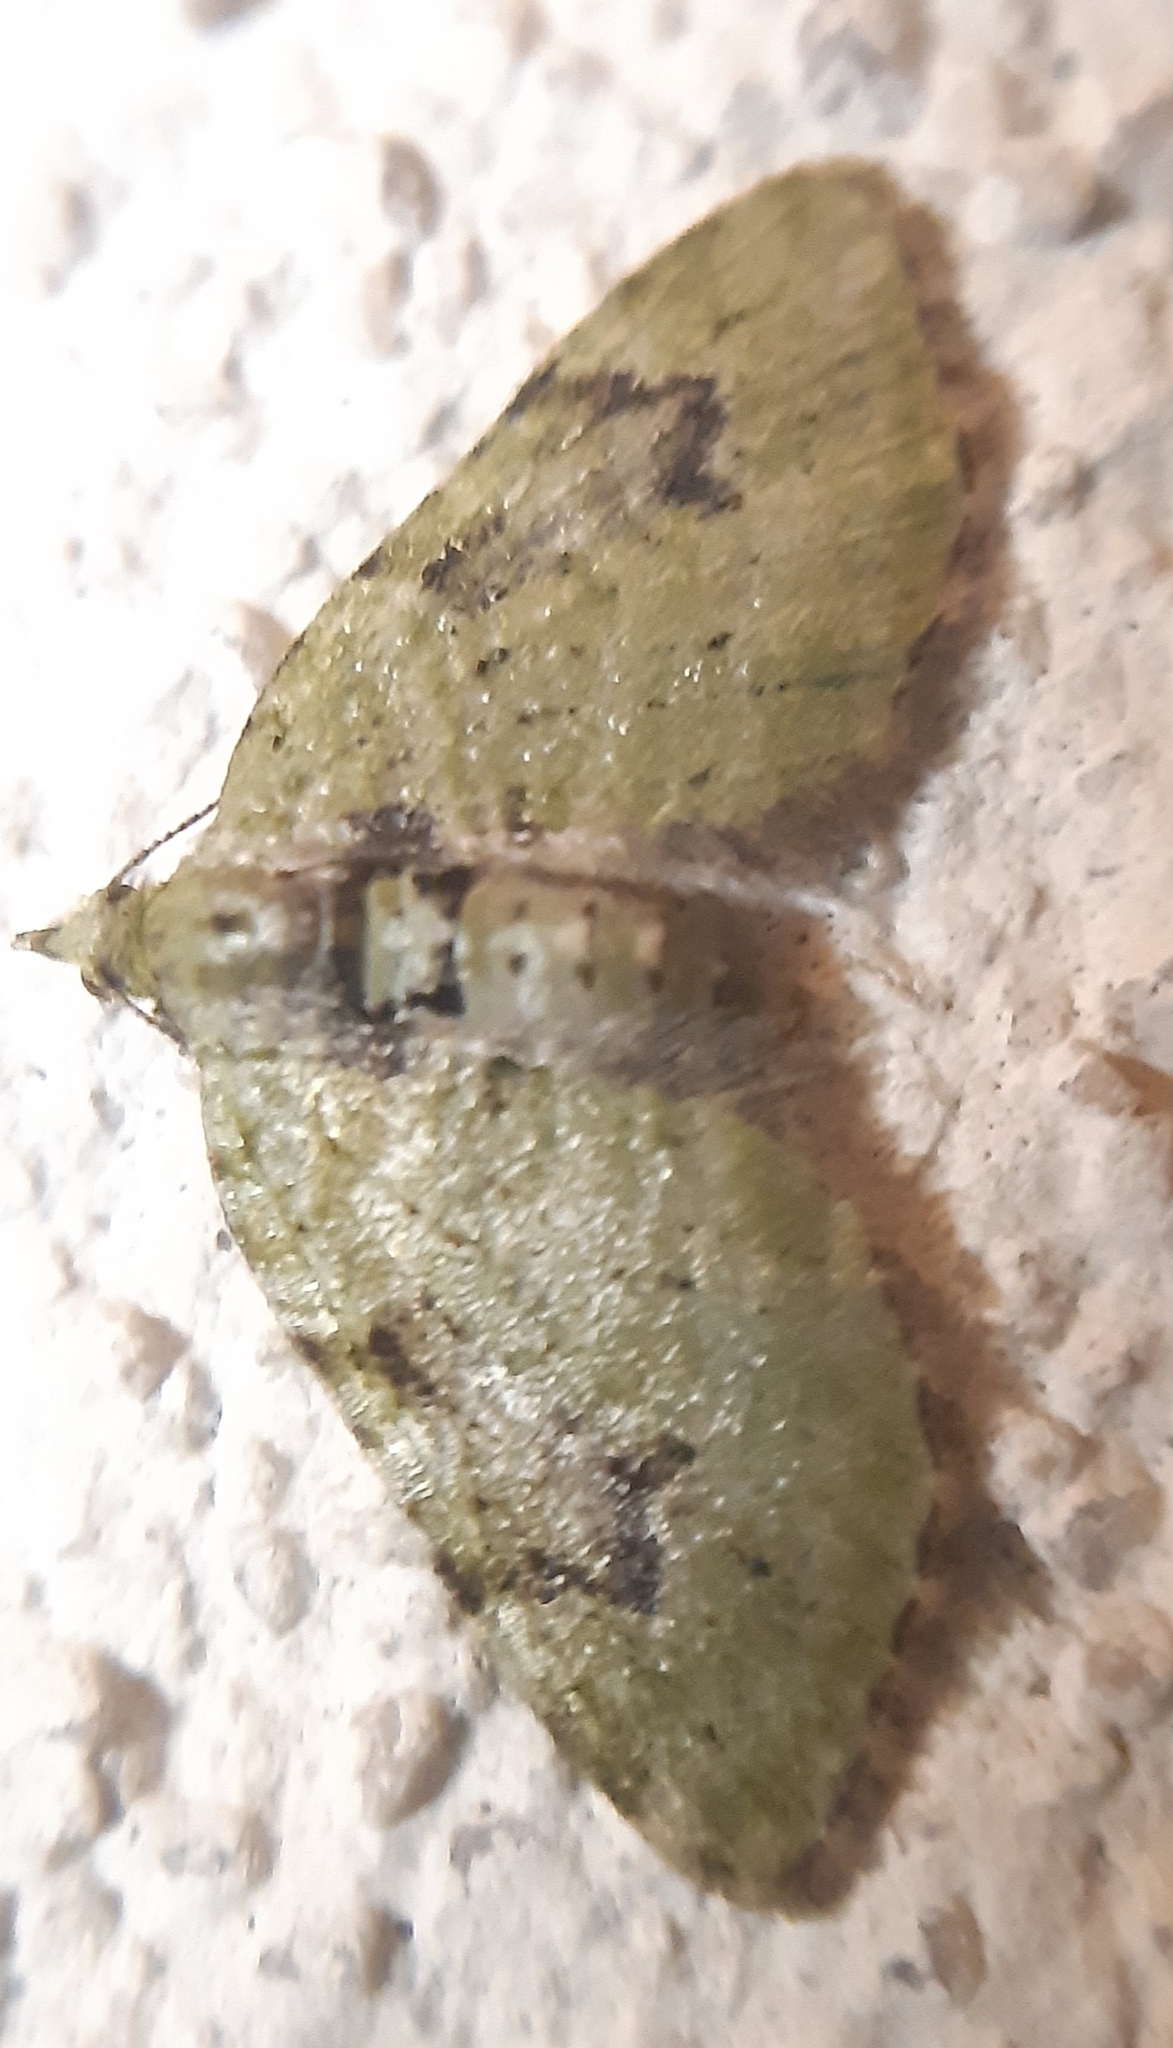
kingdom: Animalia
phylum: Arthropoda
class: Insecta
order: Lepidoptera
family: Geometridae
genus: Chloroclystis
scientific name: Chloroclystis v-ata
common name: V-pug
